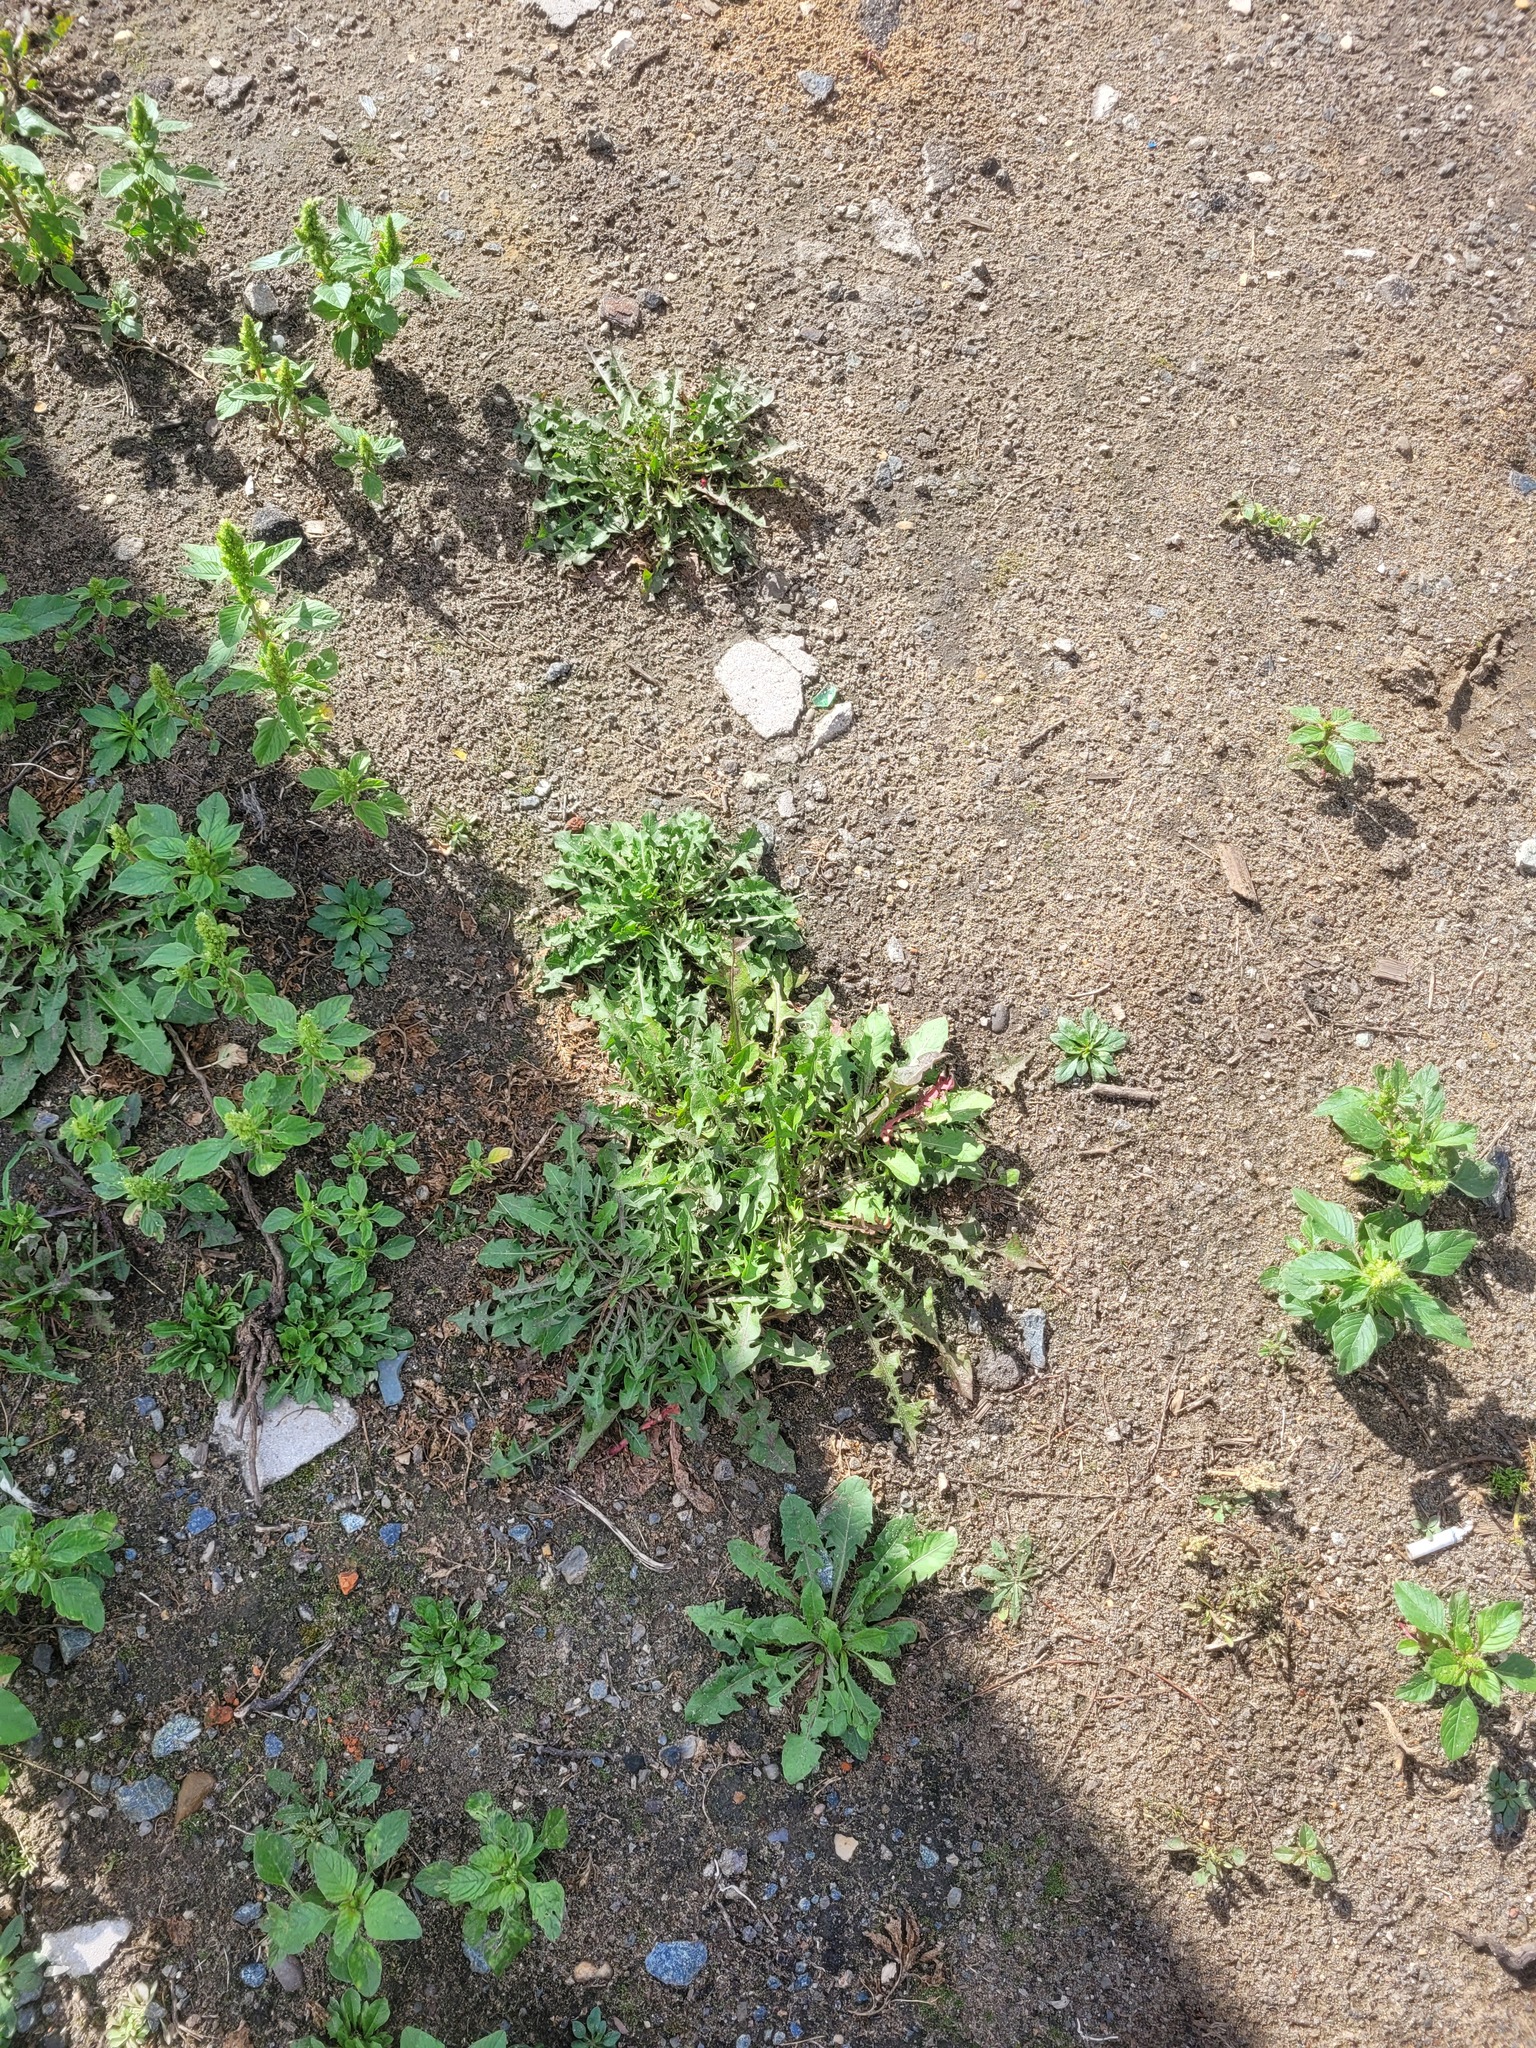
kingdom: Plantae
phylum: Tracheophyta
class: Magnoliopsida
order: Asterales
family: Asteraceae
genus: Taraxacum
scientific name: Taraxacum officinale
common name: Common dandelion
